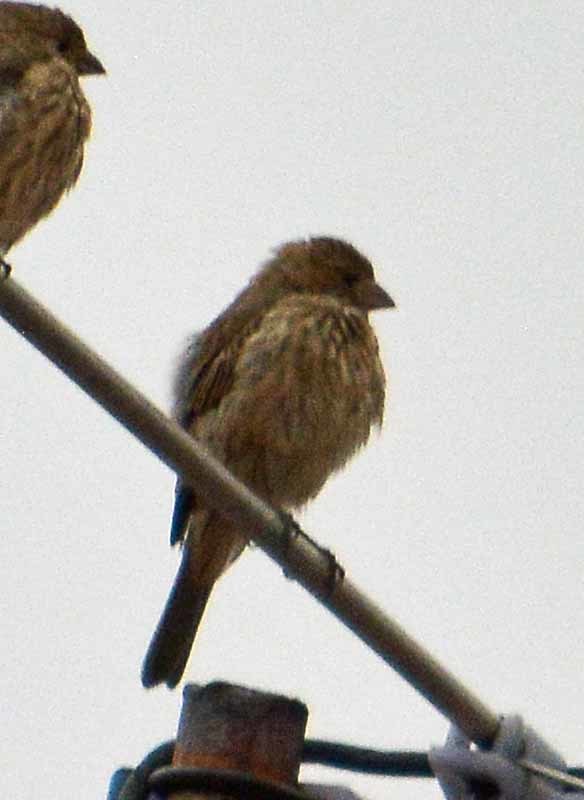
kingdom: Animalia
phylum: Chordata
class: Aves
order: Passeriformes
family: Fringillidae
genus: Haemorhous
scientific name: Haemorhous mexicanus
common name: House finch
